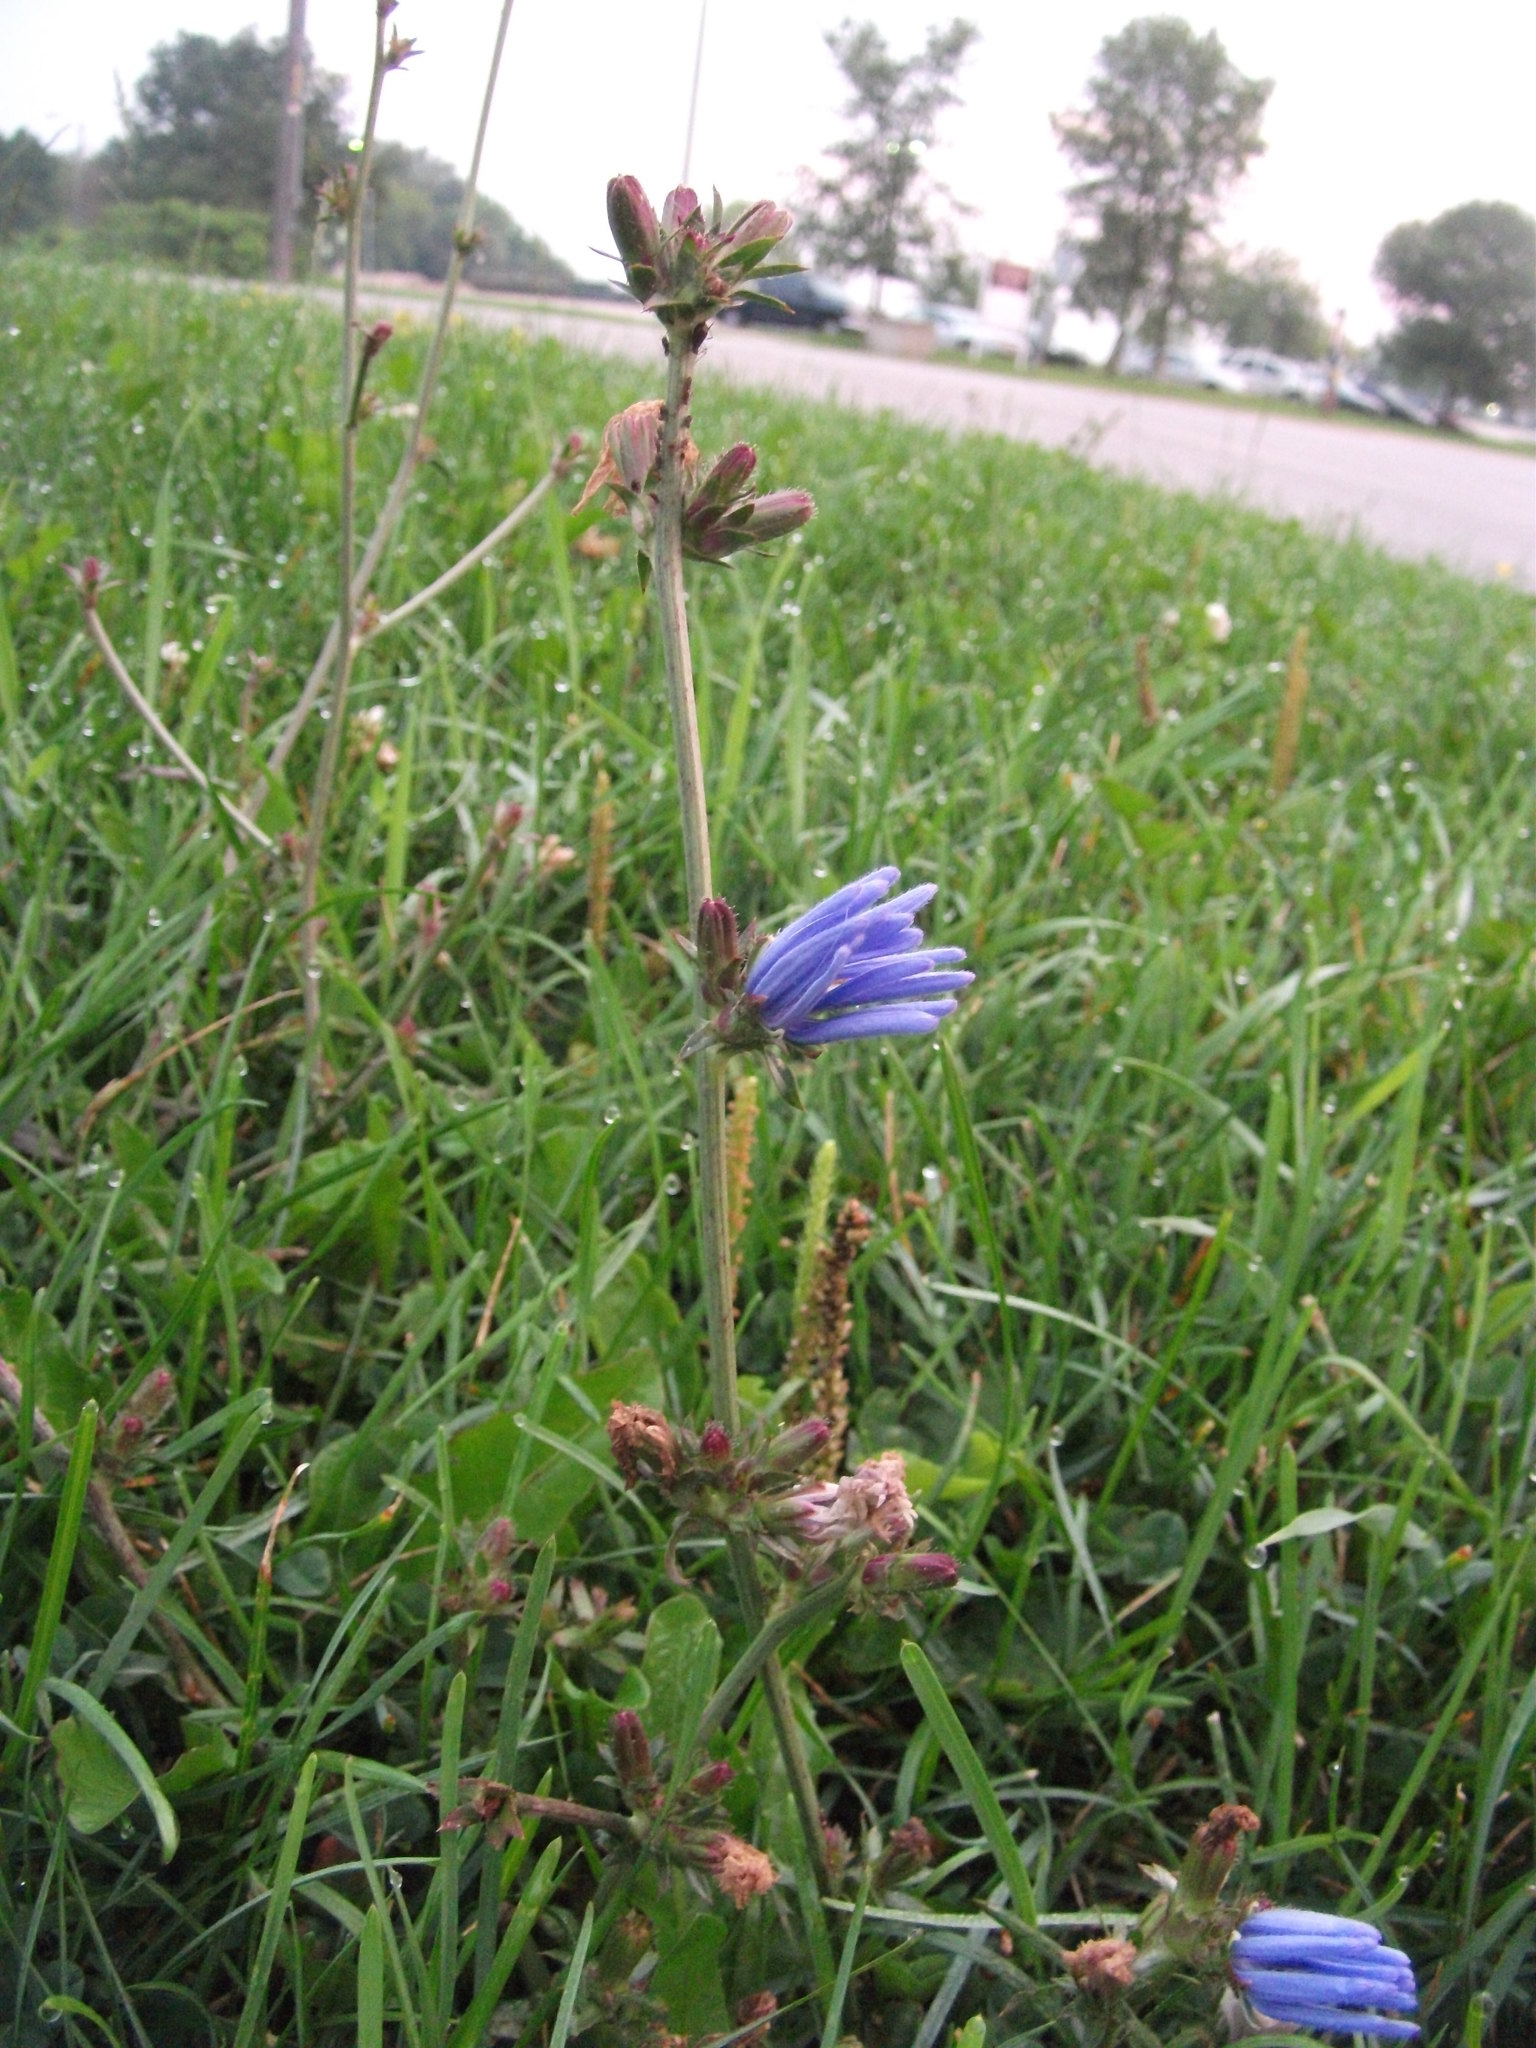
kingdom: Plantae
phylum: Tracheophyta
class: Magnoliopsida
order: Asterales
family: Asteraceae
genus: Cichorium
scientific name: Cichorium intybus
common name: Chicory
